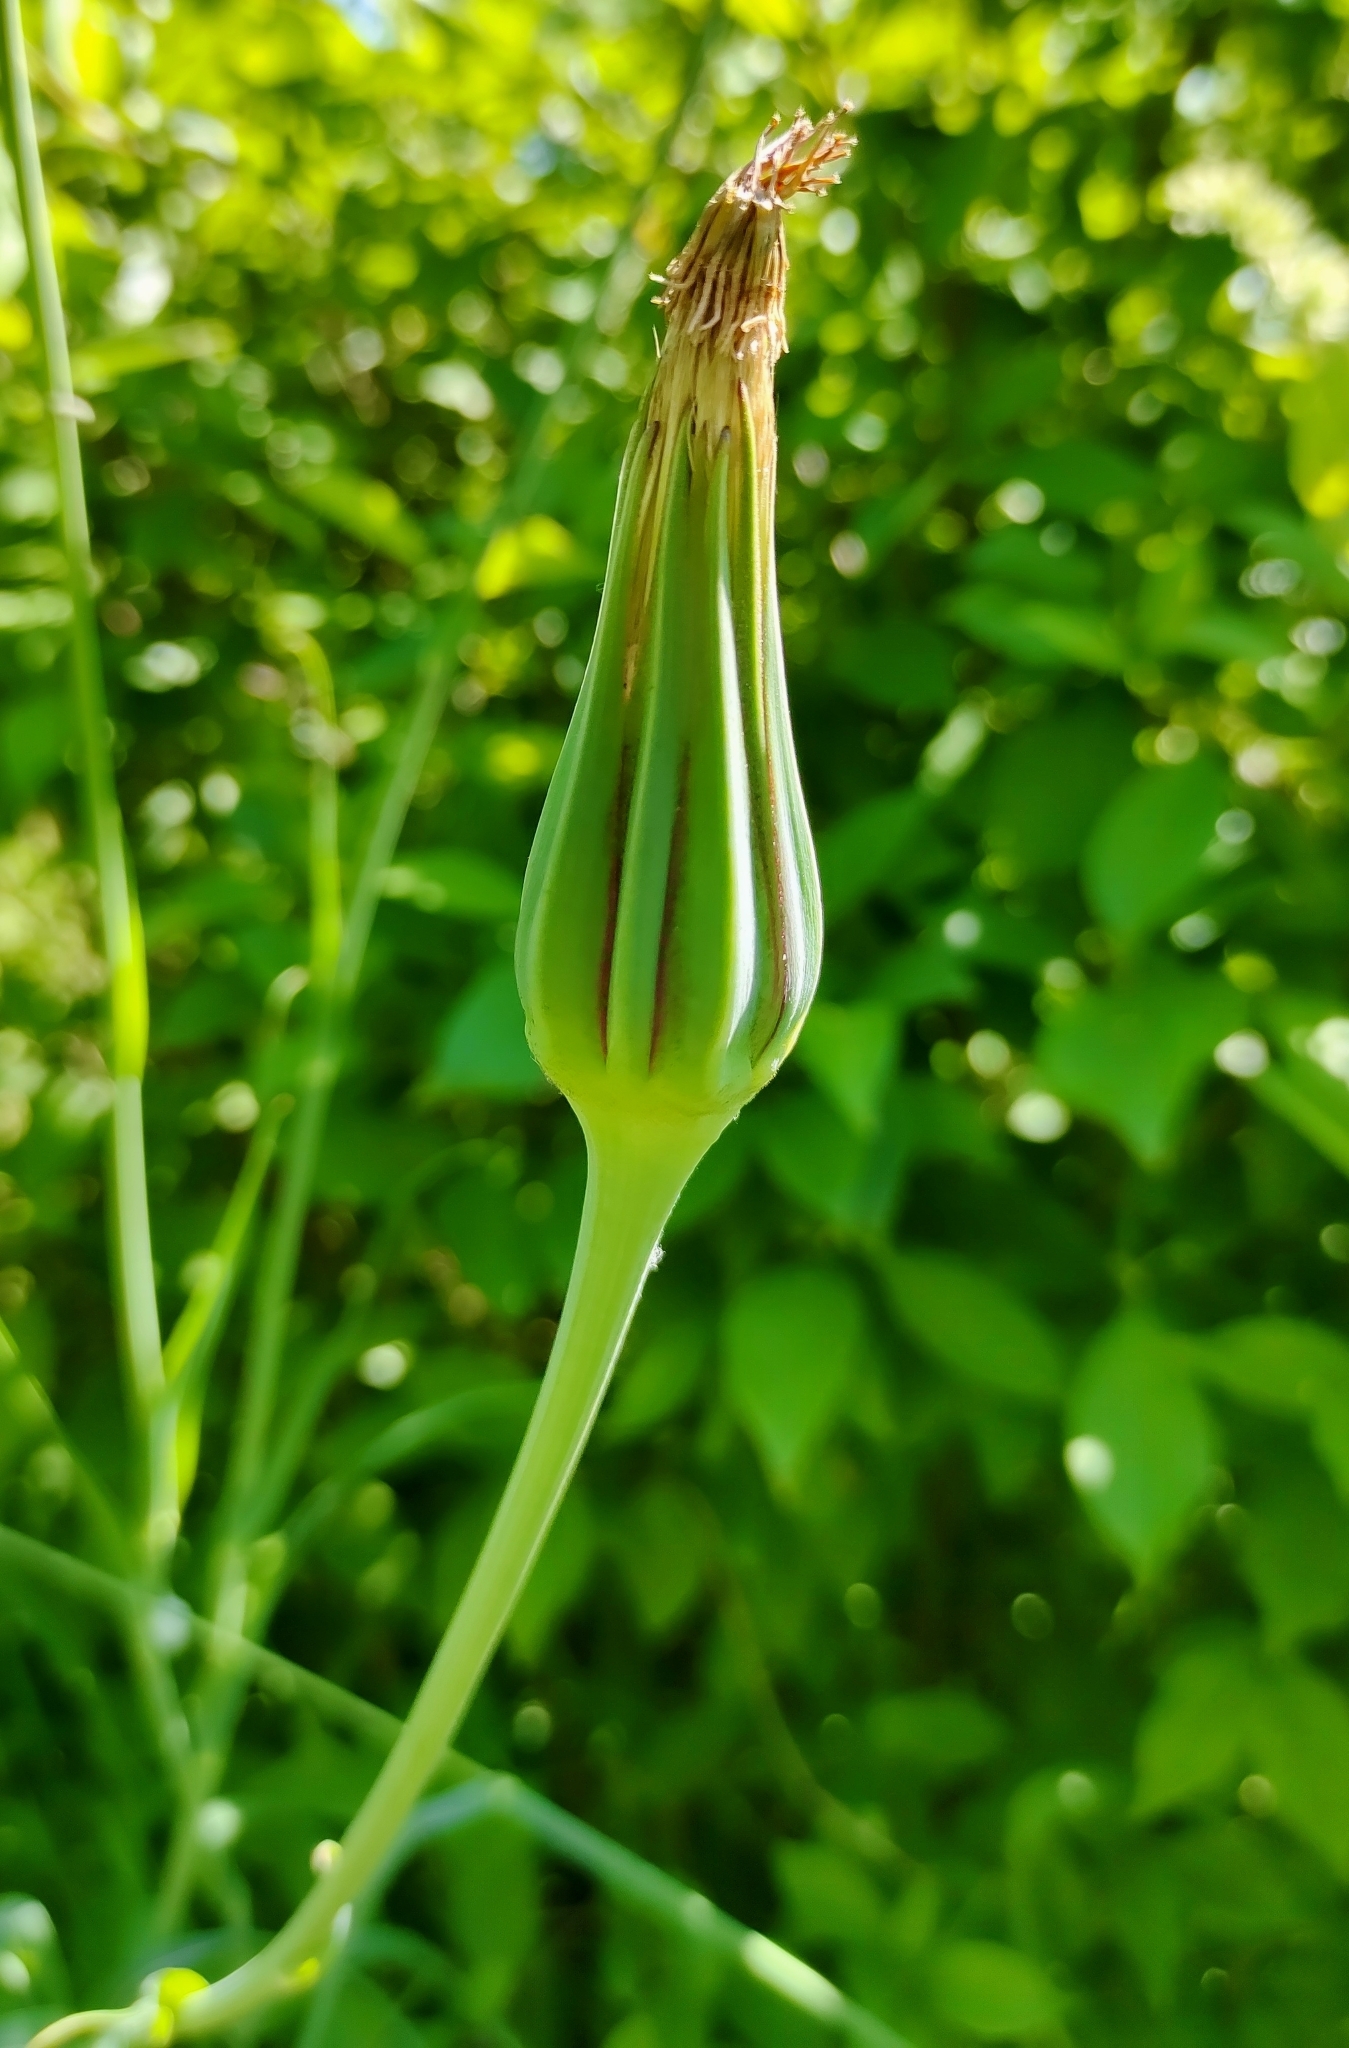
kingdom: Plantae
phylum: Tracheophyta
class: Magnoliopsida
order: Asterales
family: Asteraceae
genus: Tragopogon
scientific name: Tragopogon pratensis
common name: Goat's-beard
